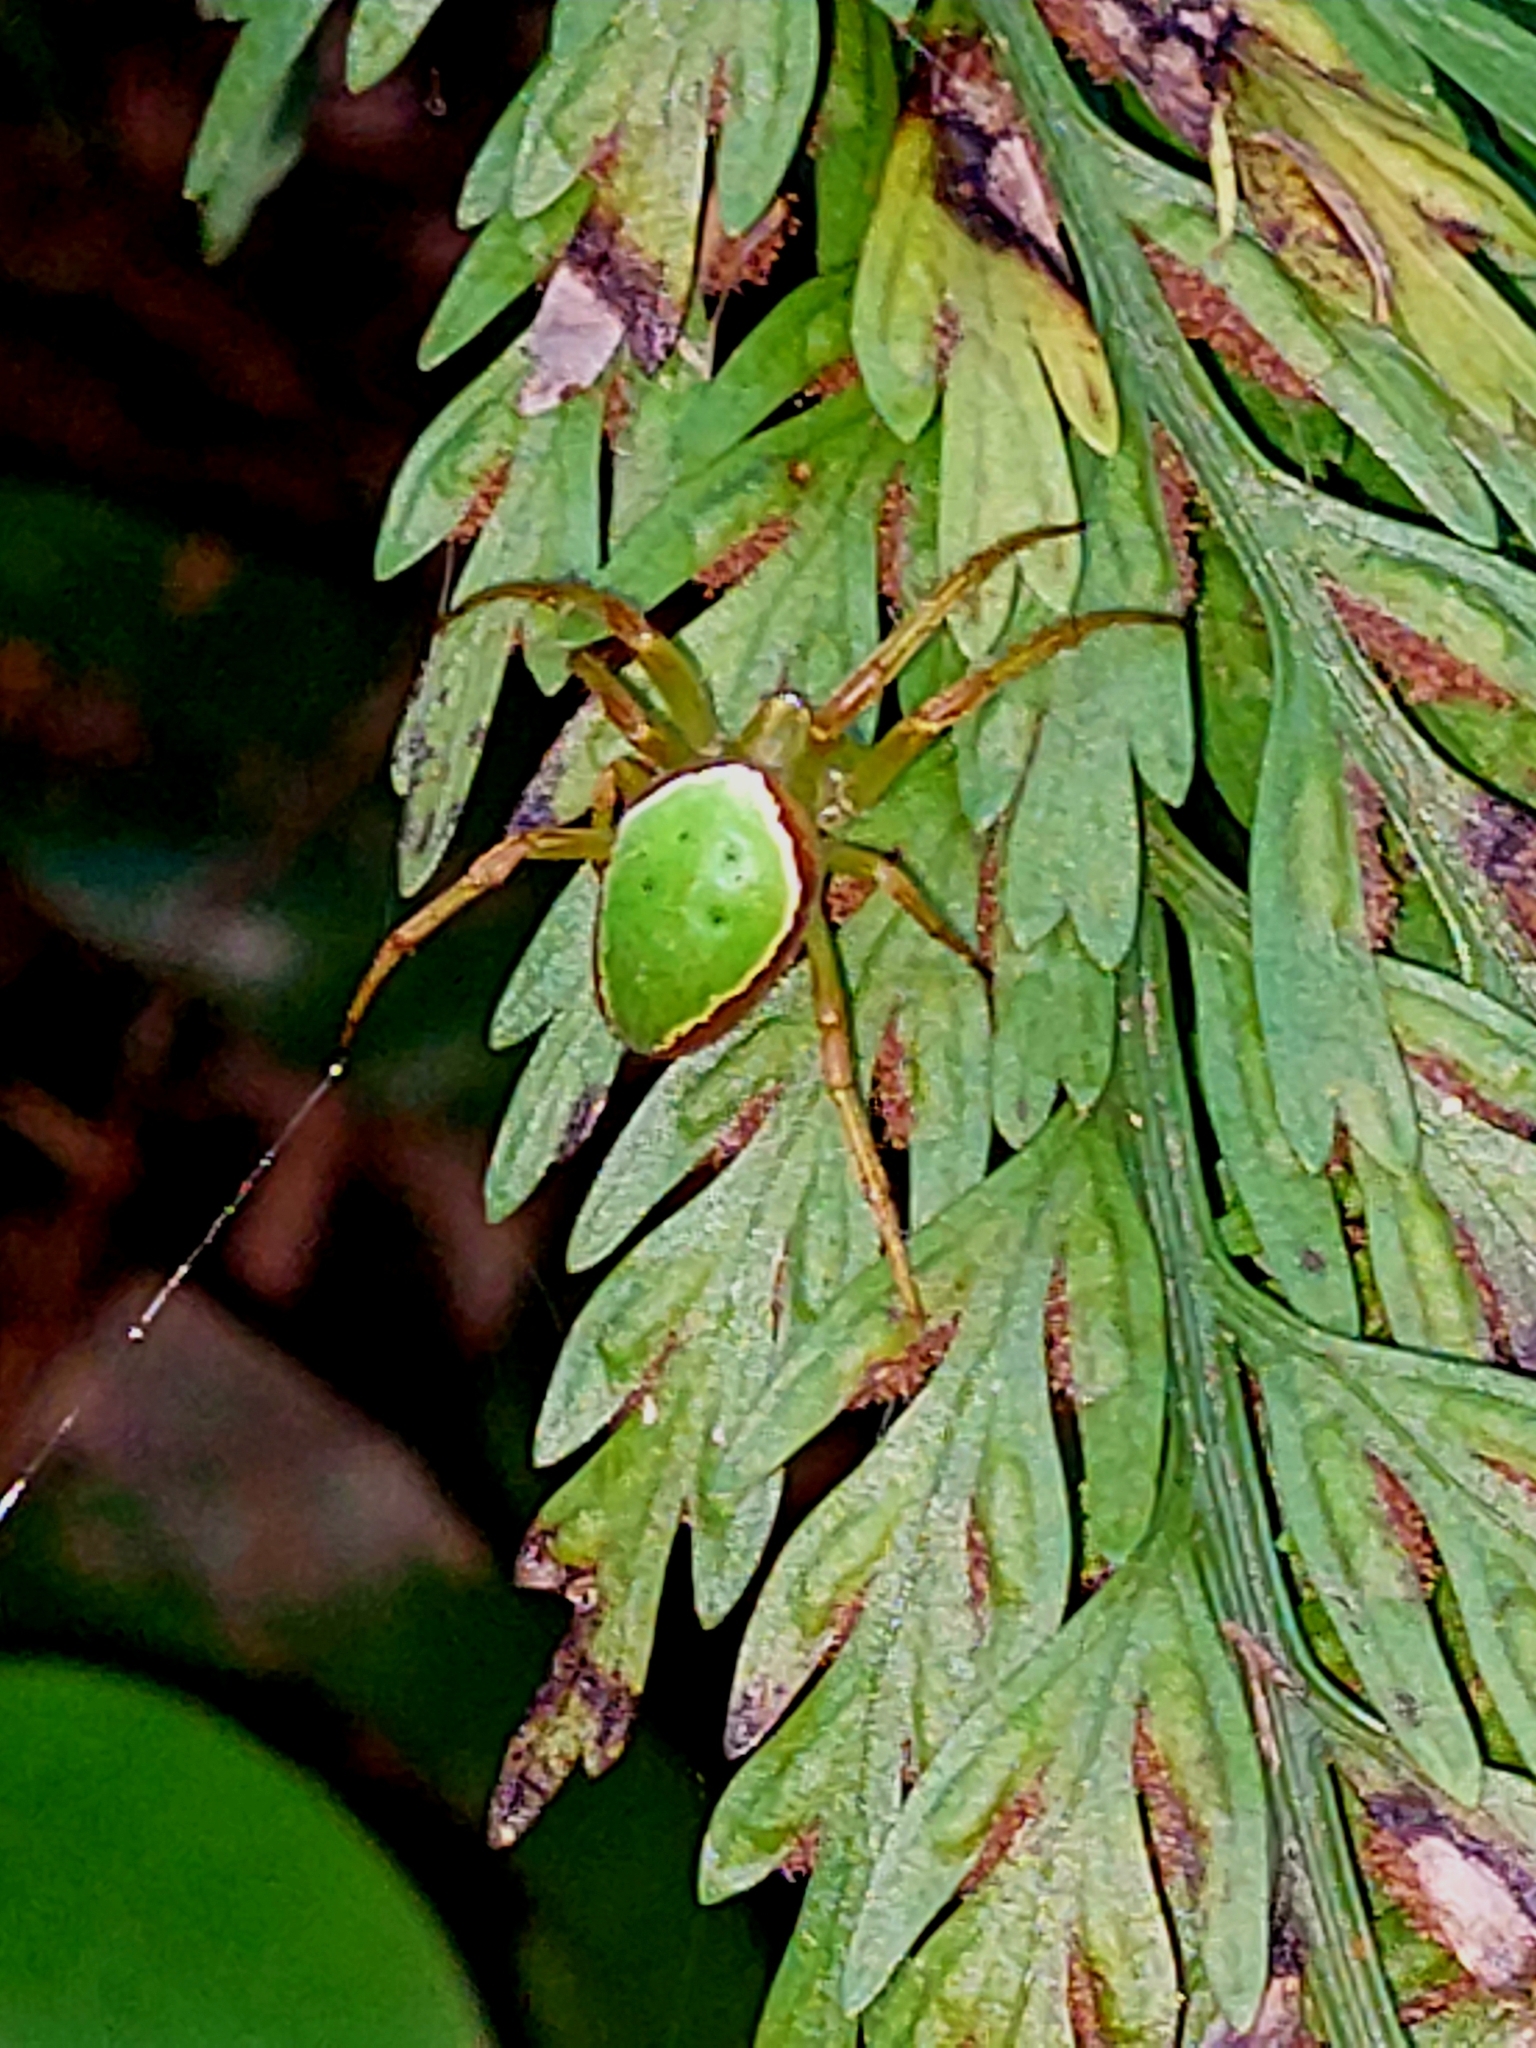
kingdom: Animalia
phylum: Arthropoda
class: Arachnida
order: Araneae
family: Araneidae
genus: Colaranea
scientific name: Colaranea viriditas
